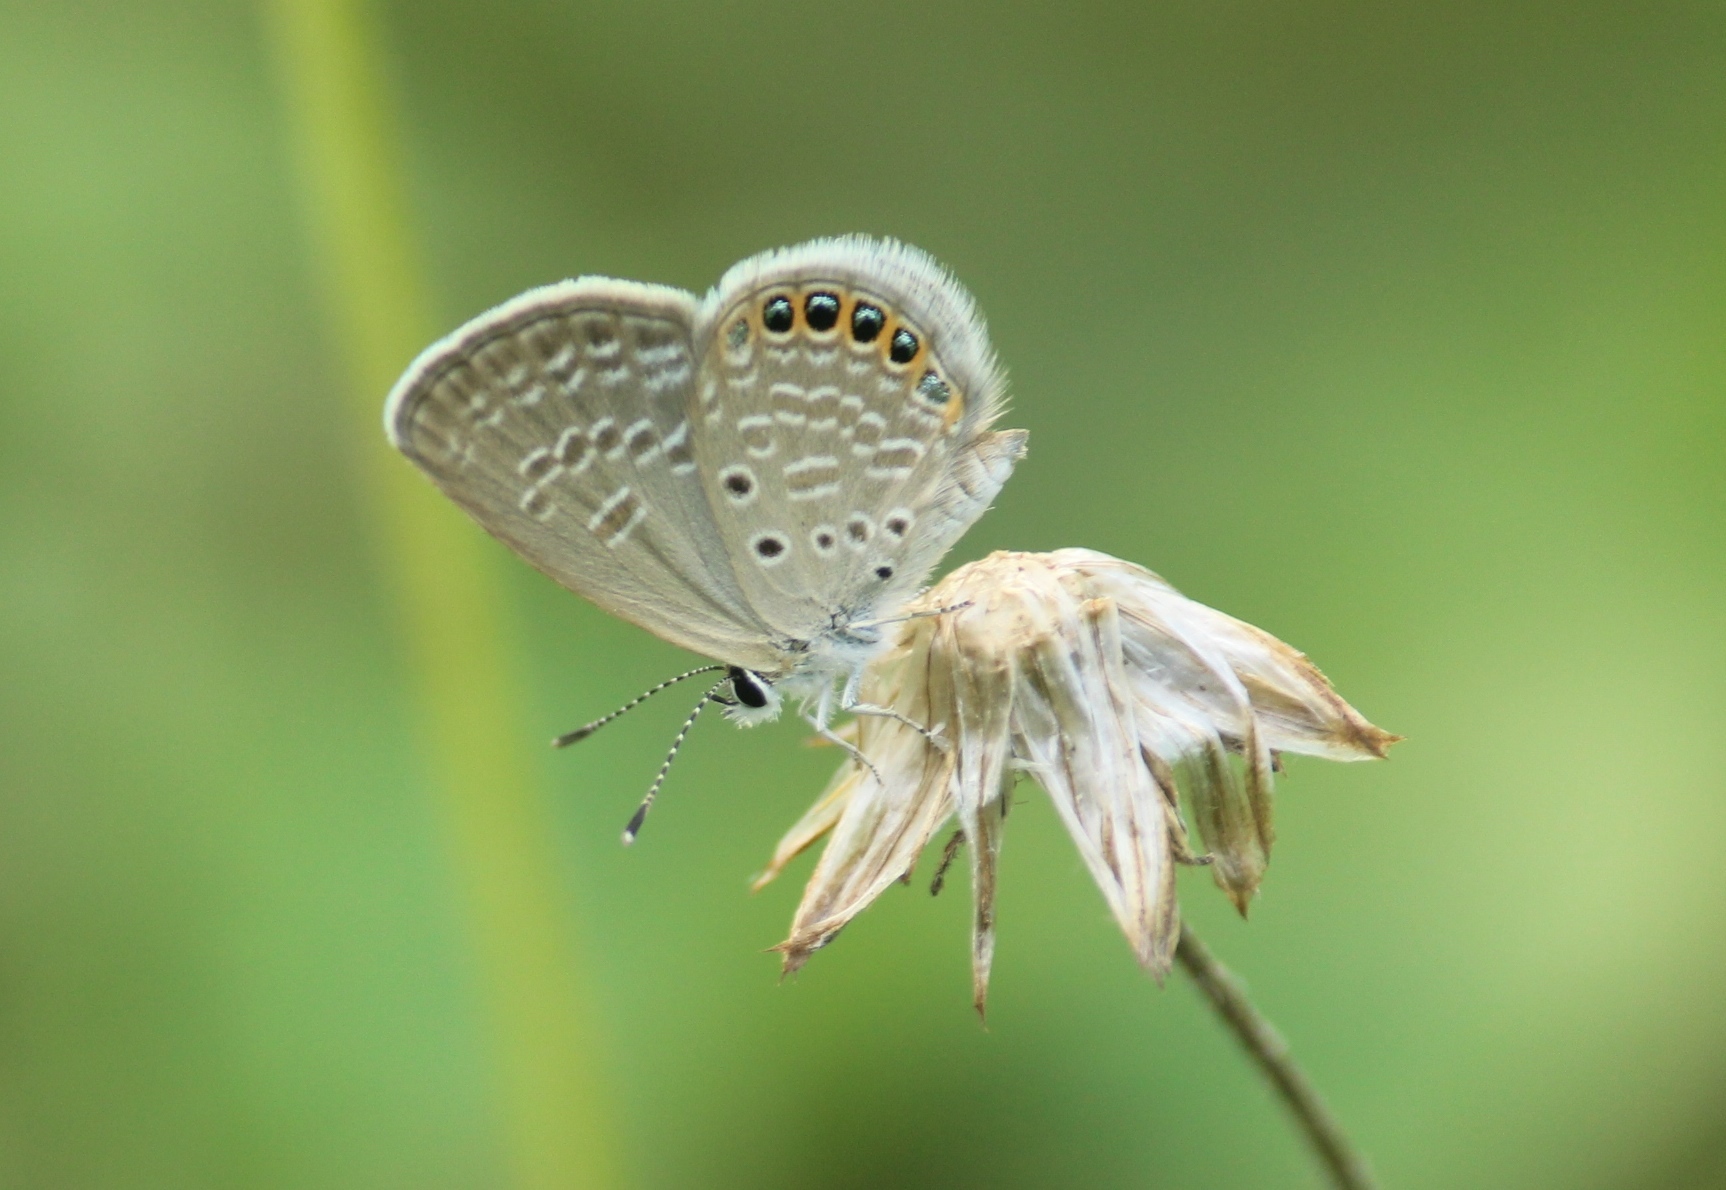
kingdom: Animalia
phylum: Arthropoda
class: Insecta
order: Lepidoptera
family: Lycaenidae
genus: Freyeria
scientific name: Freyeria putli
